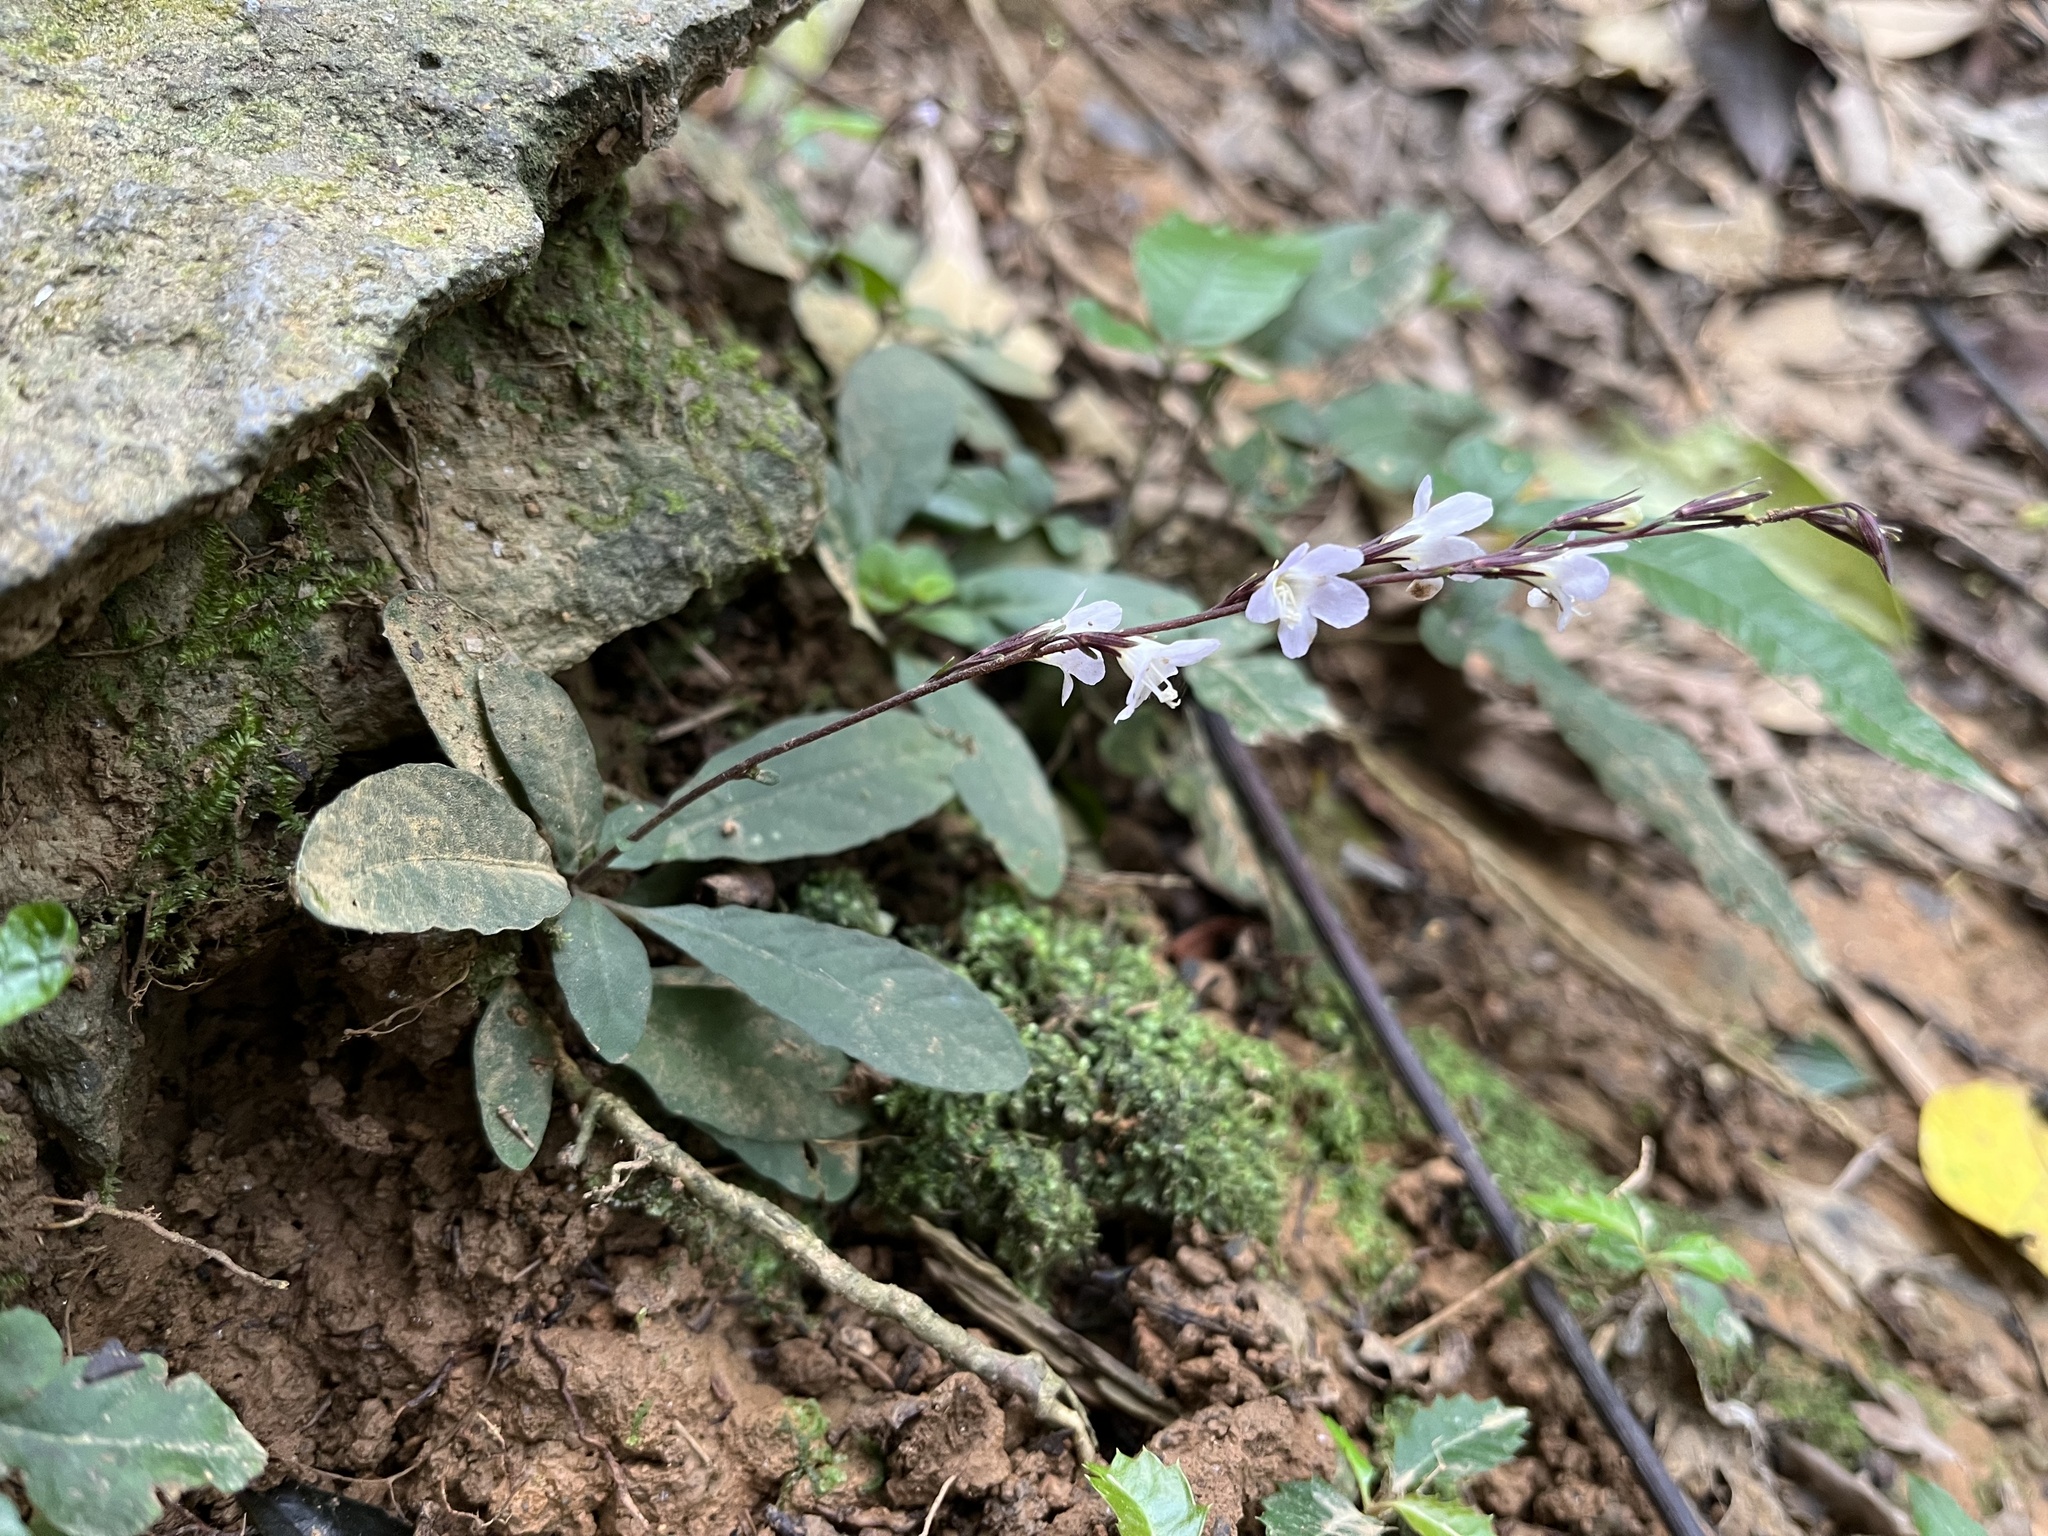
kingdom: Plantae
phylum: Tracheophyta
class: Magnoliopsida
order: Lamiales
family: Acanthaceae
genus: Staurogyne
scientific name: Staurogyne concinnula
